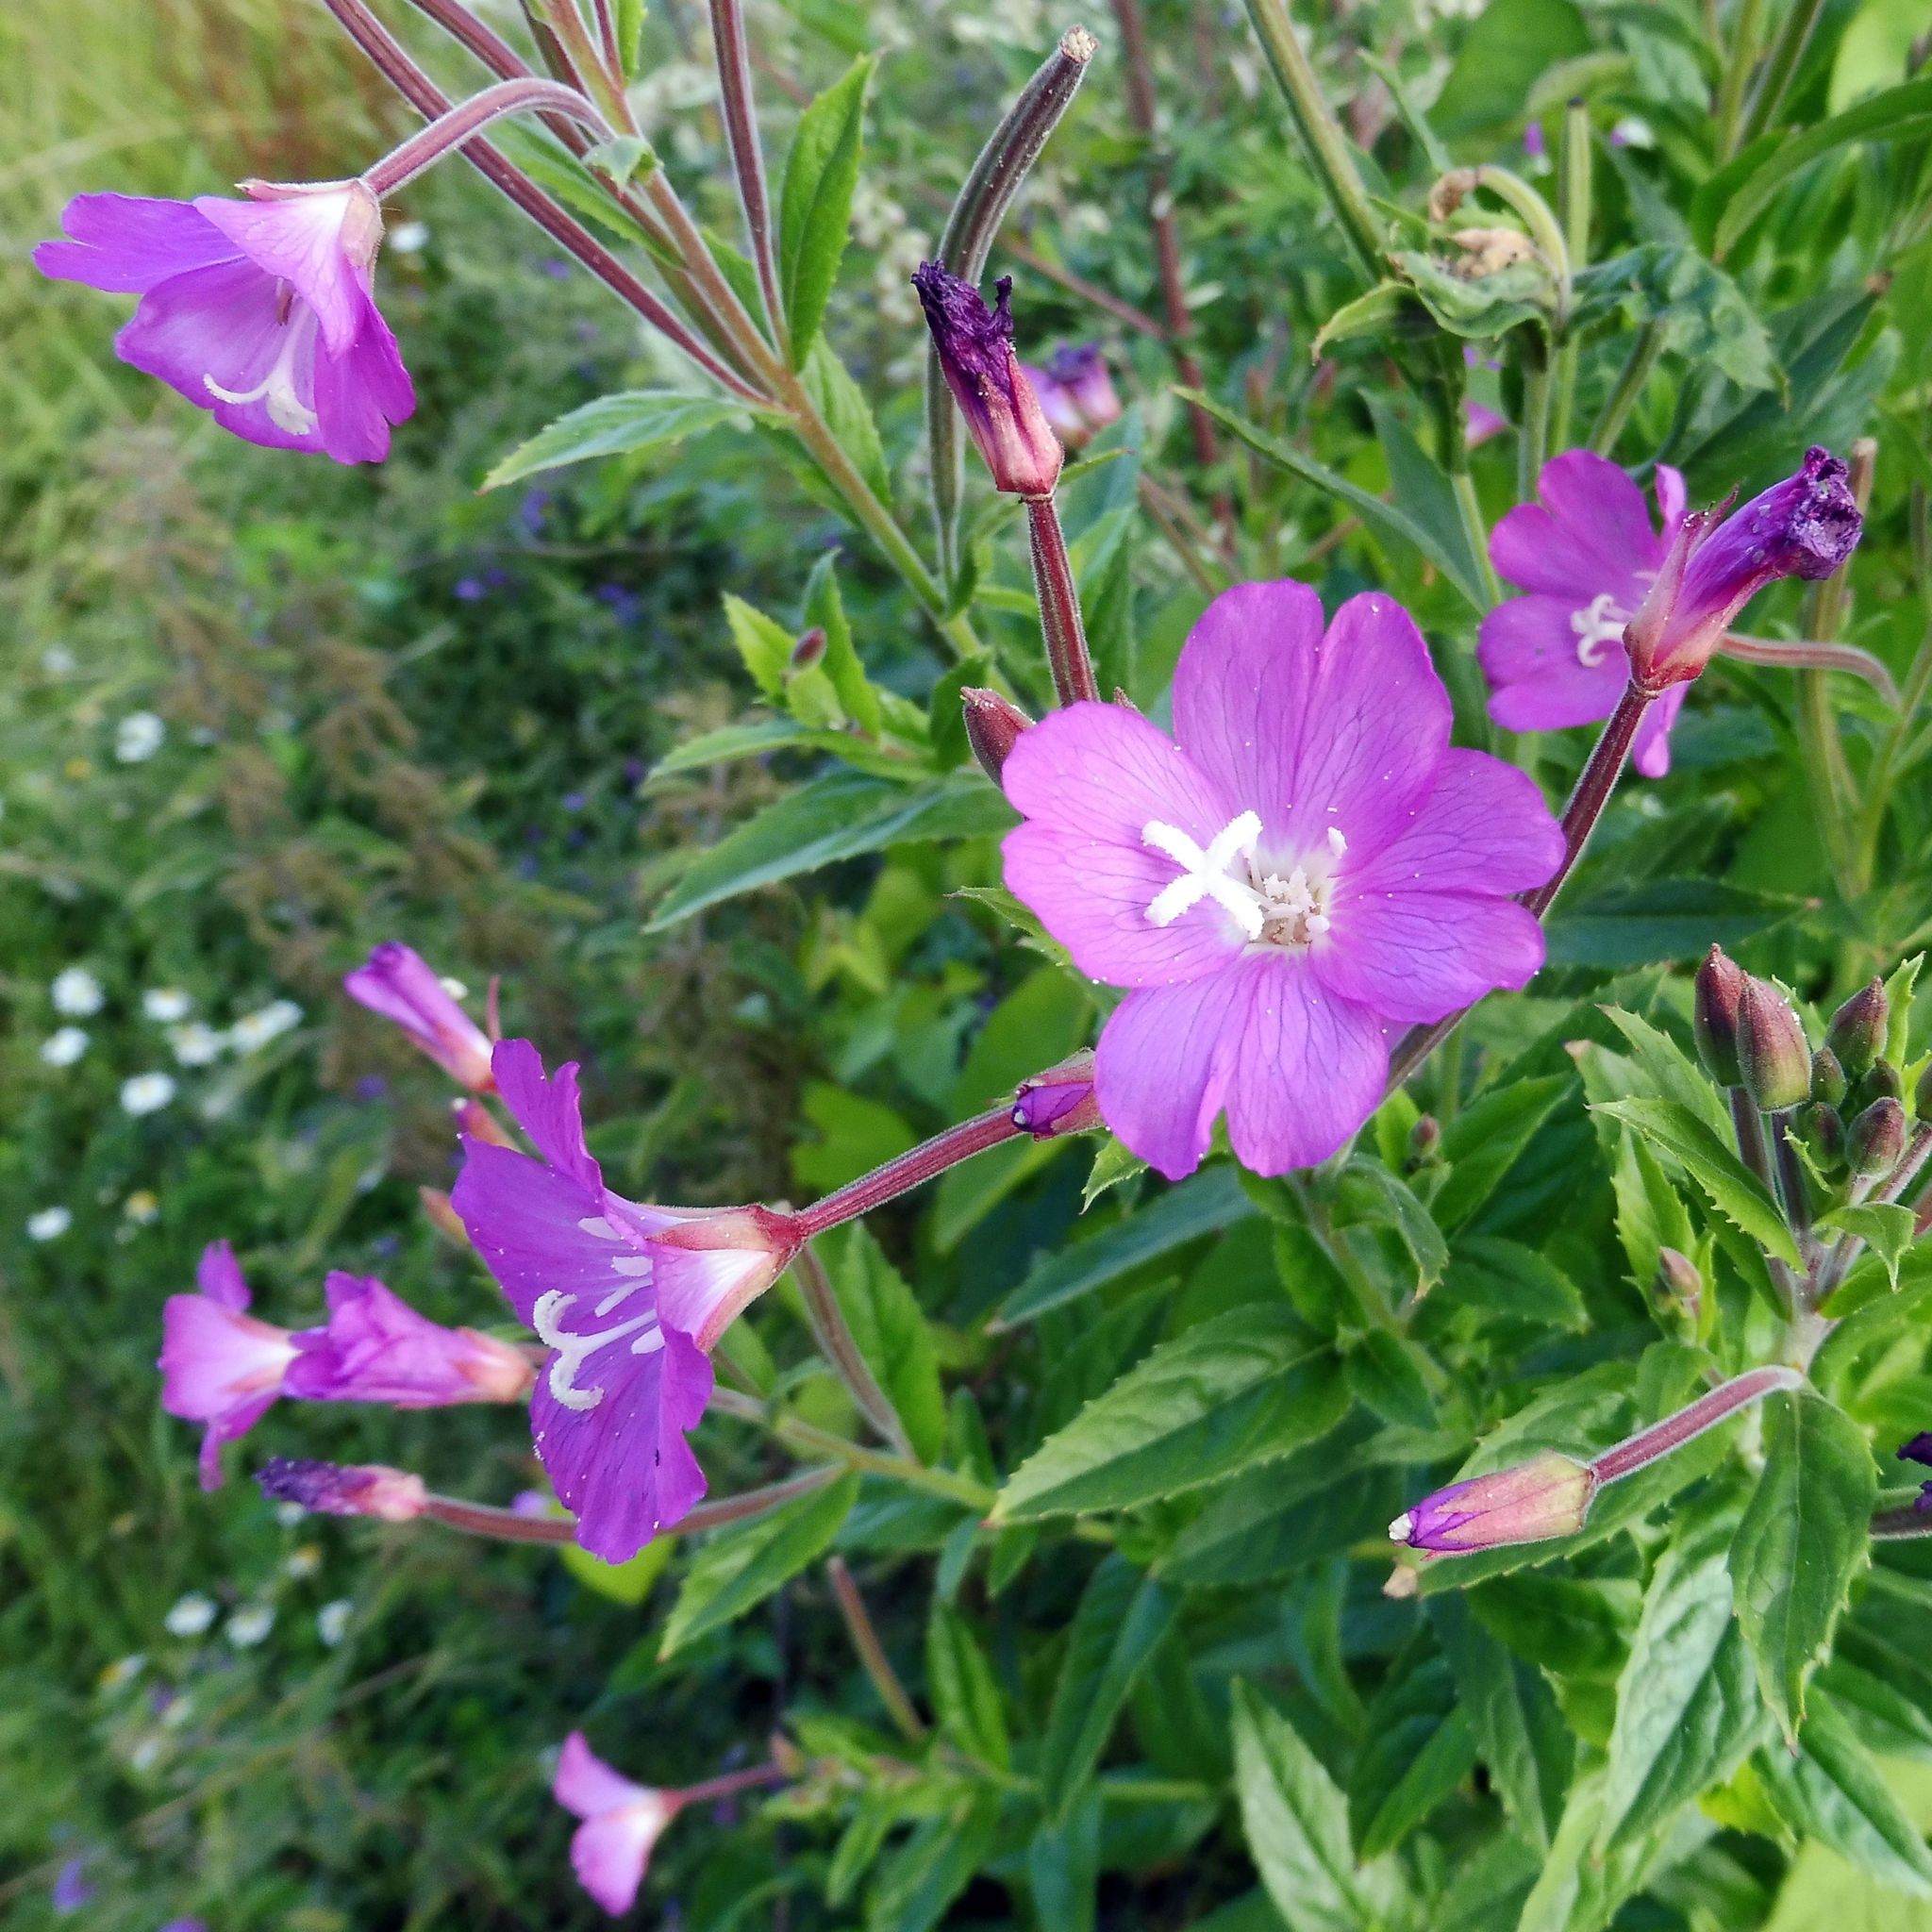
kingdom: Plantae
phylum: Tracheophyta
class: Magnoliopsida
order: Myrtales
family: Onagraceae
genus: Epilobium
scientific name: Epilobium hirsutum
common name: Great willowherb
